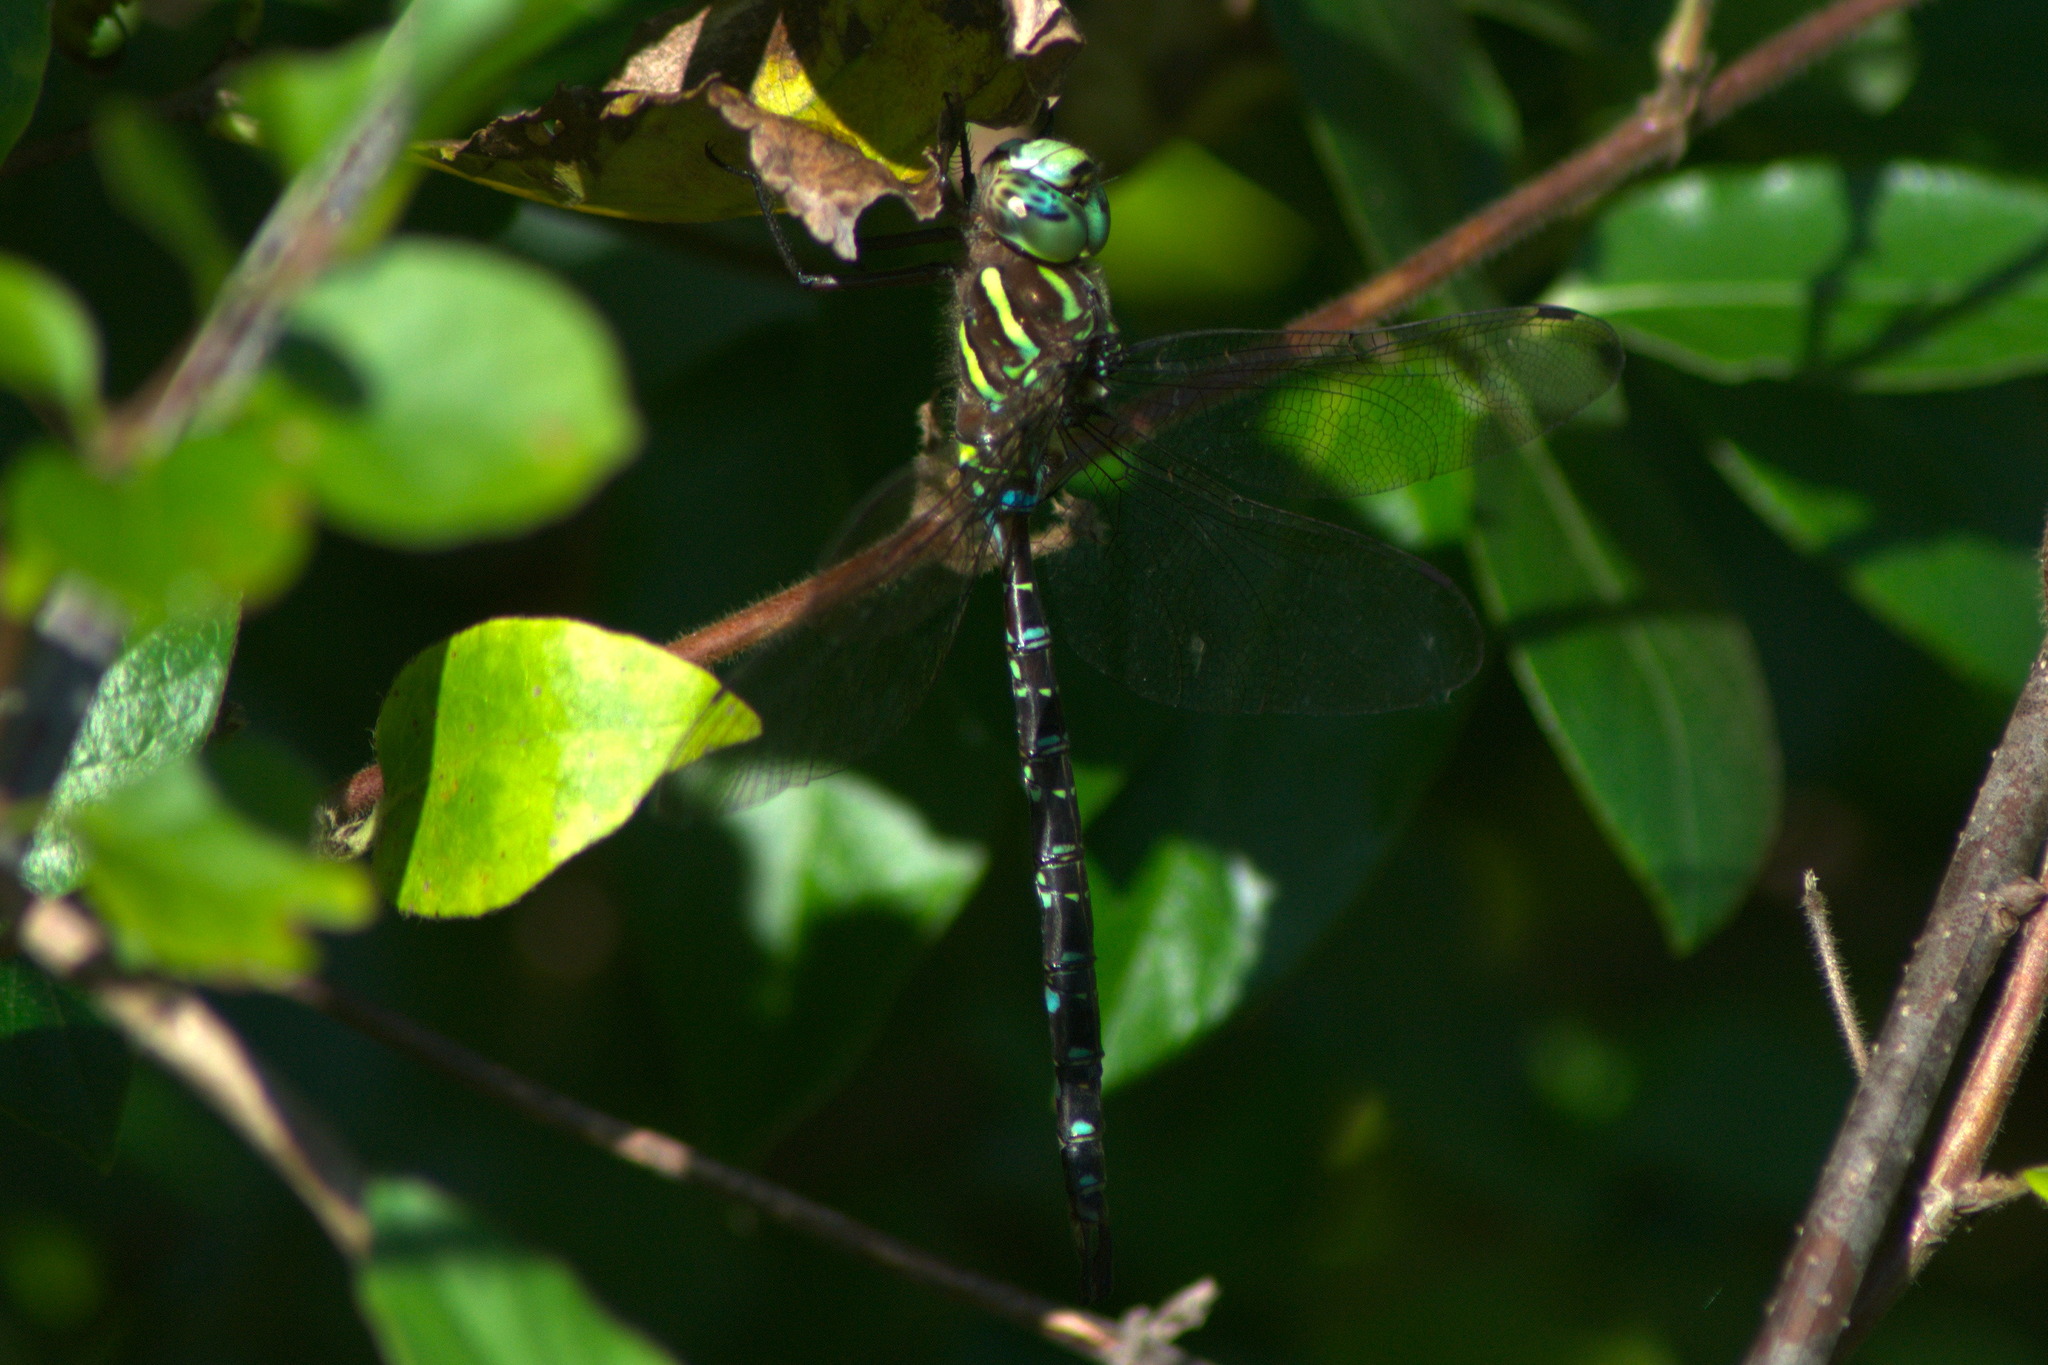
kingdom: Animalia
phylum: Arthropoda
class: Insecta
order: Odonata
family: Aeshnidae
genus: Aeshna
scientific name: Aeshna umbrosa
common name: Shadow darner
